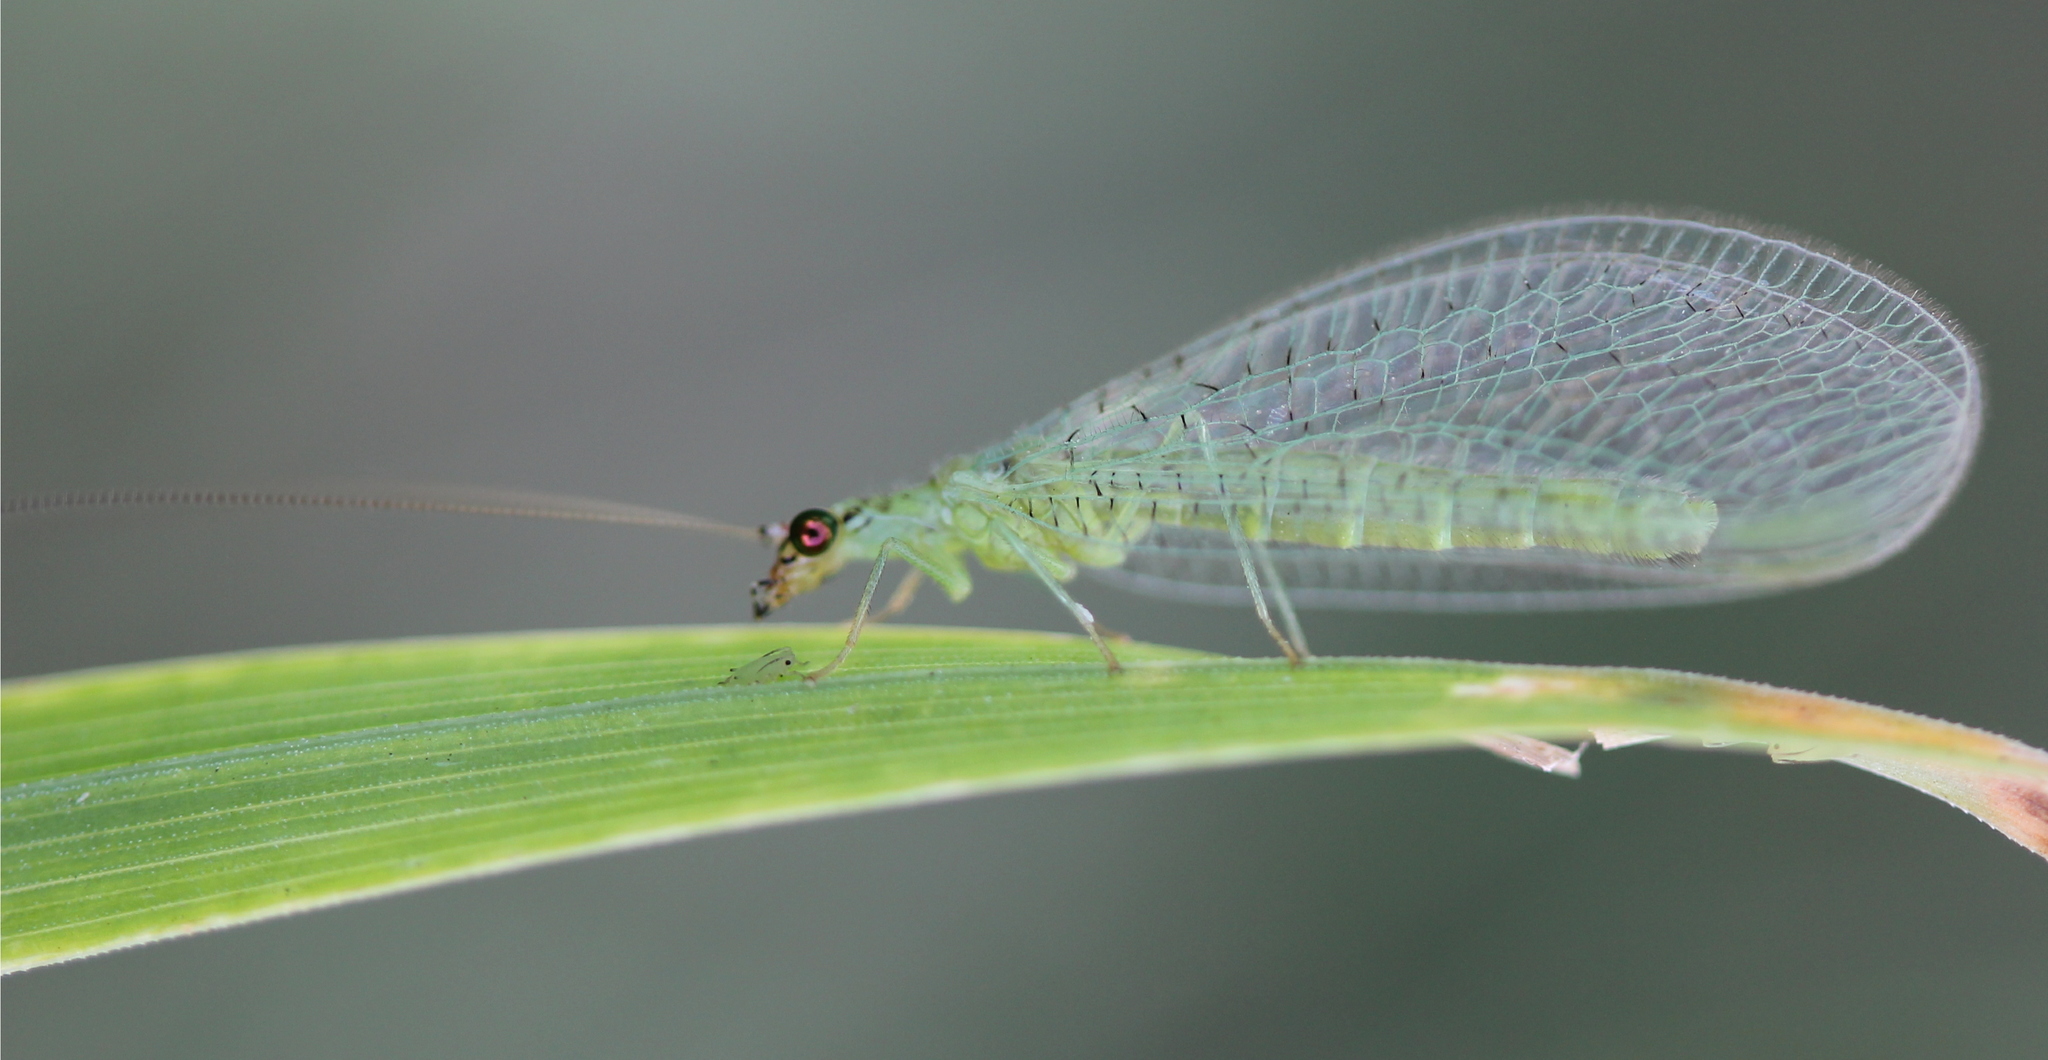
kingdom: Animalia
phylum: Arthropoda
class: Insecta
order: Neuroptera
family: Chrysopidae
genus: Chrysopa
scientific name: Chrysopa oculata
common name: Golden-eyed lacewing
